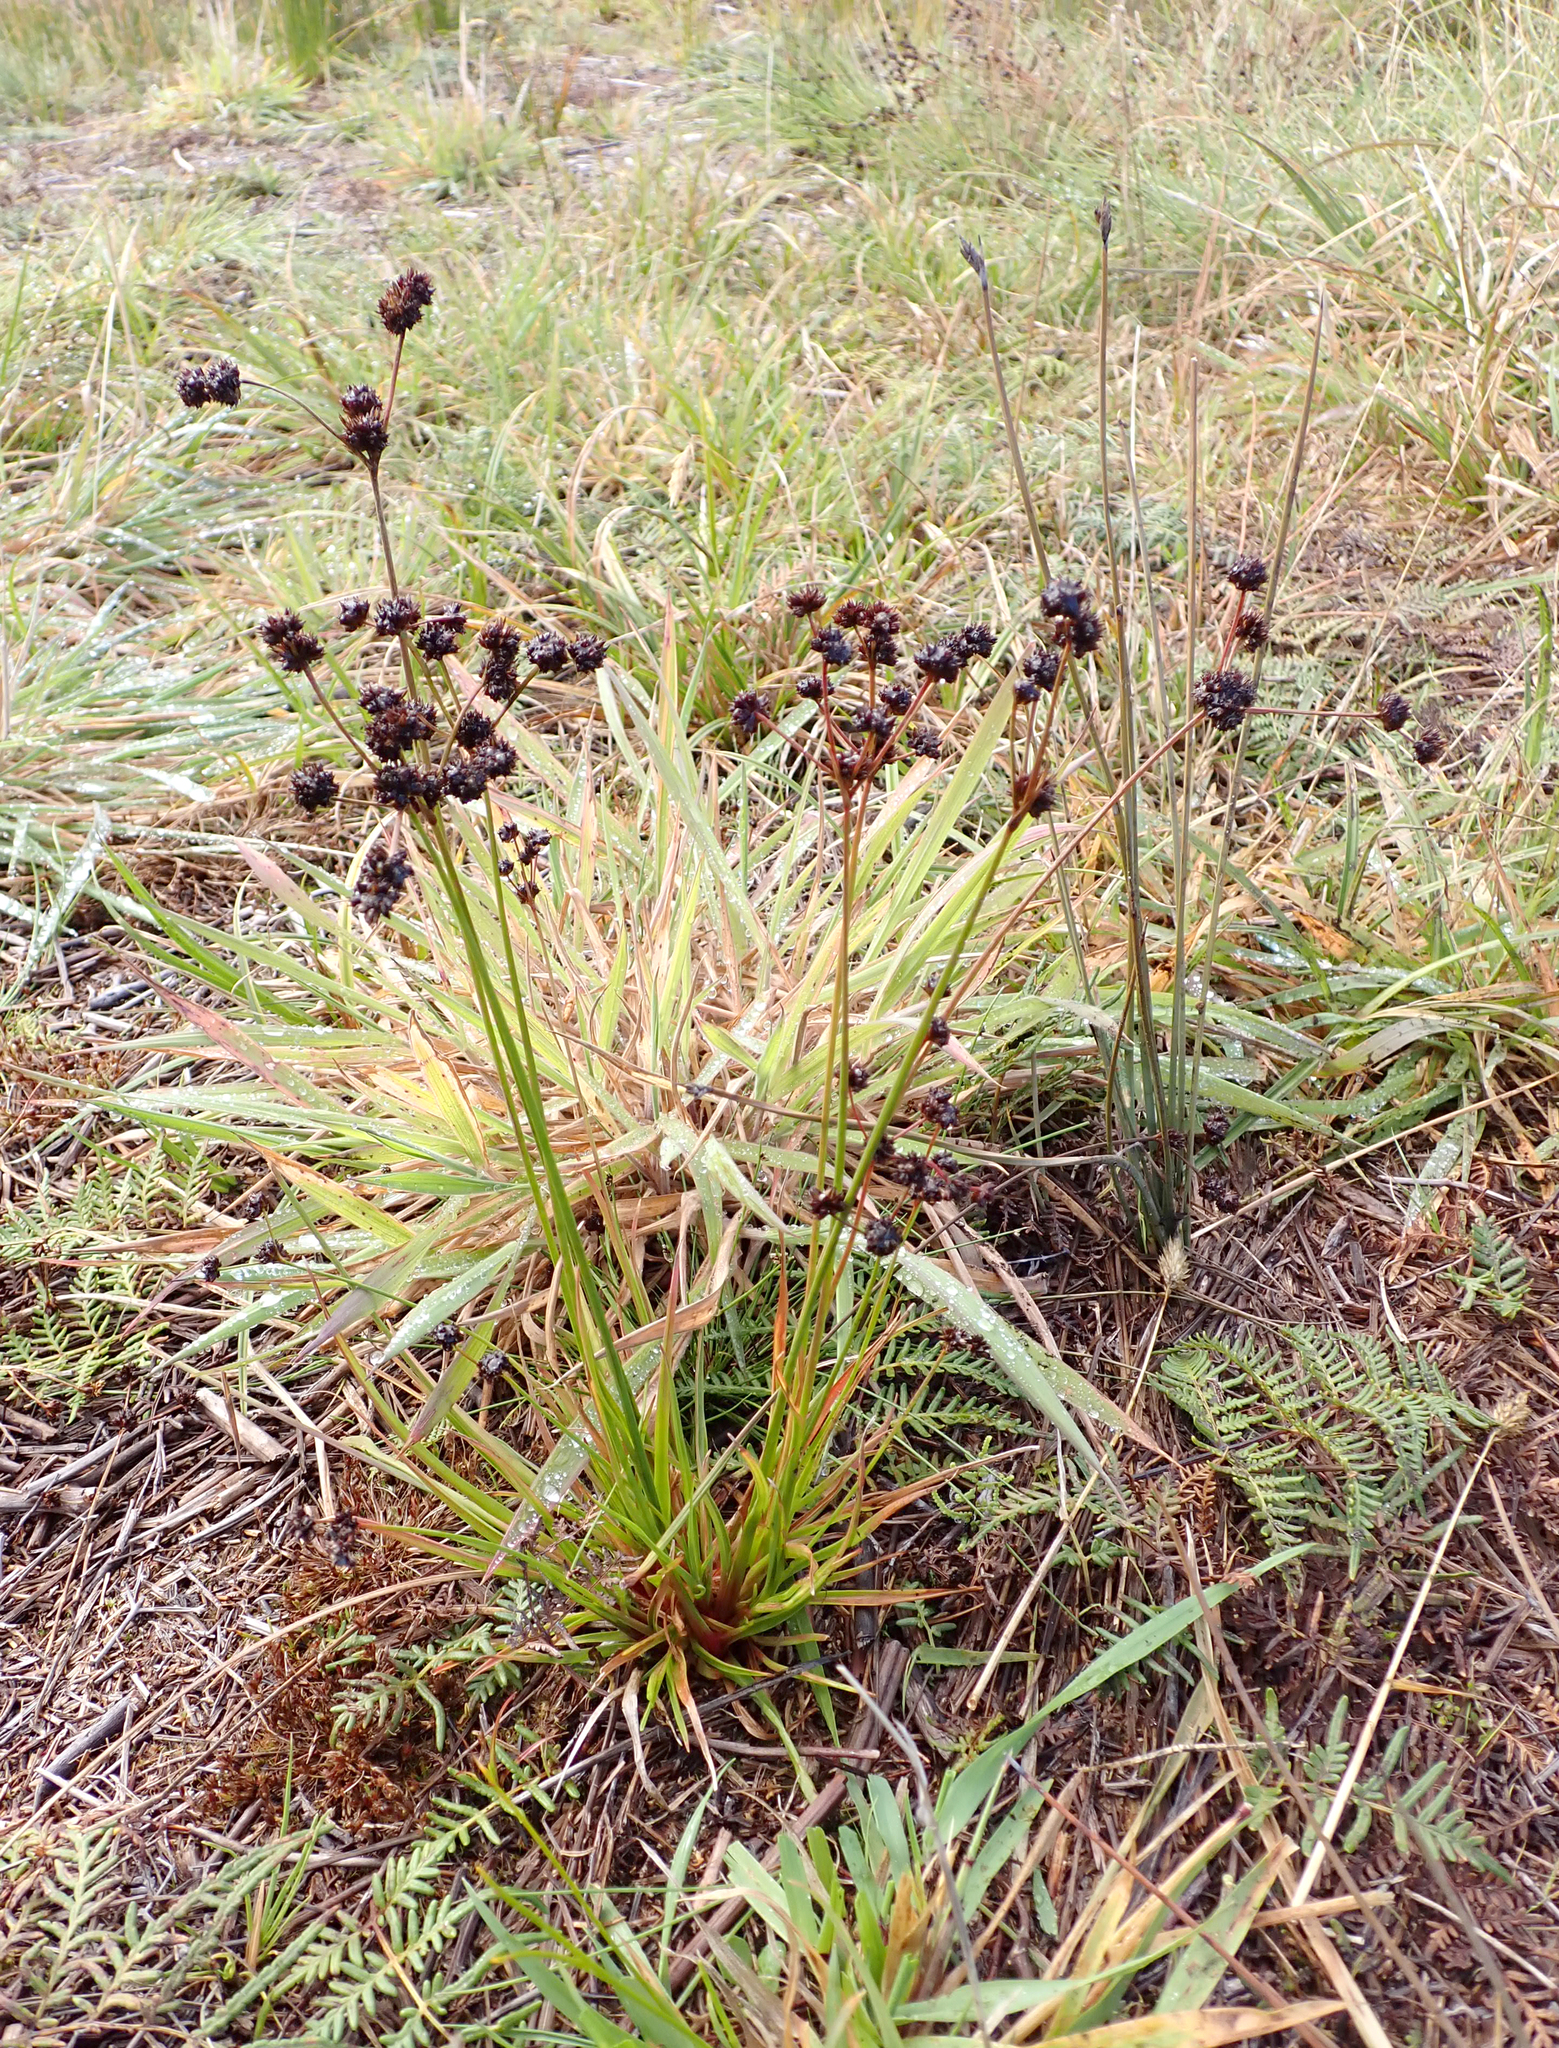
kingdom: Plantae
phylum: Tracheophyta
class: Liliopsida
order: Poales
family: Juncaceae
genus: Juncus
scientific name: Juncus planifolius
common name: Broadleaf rush
